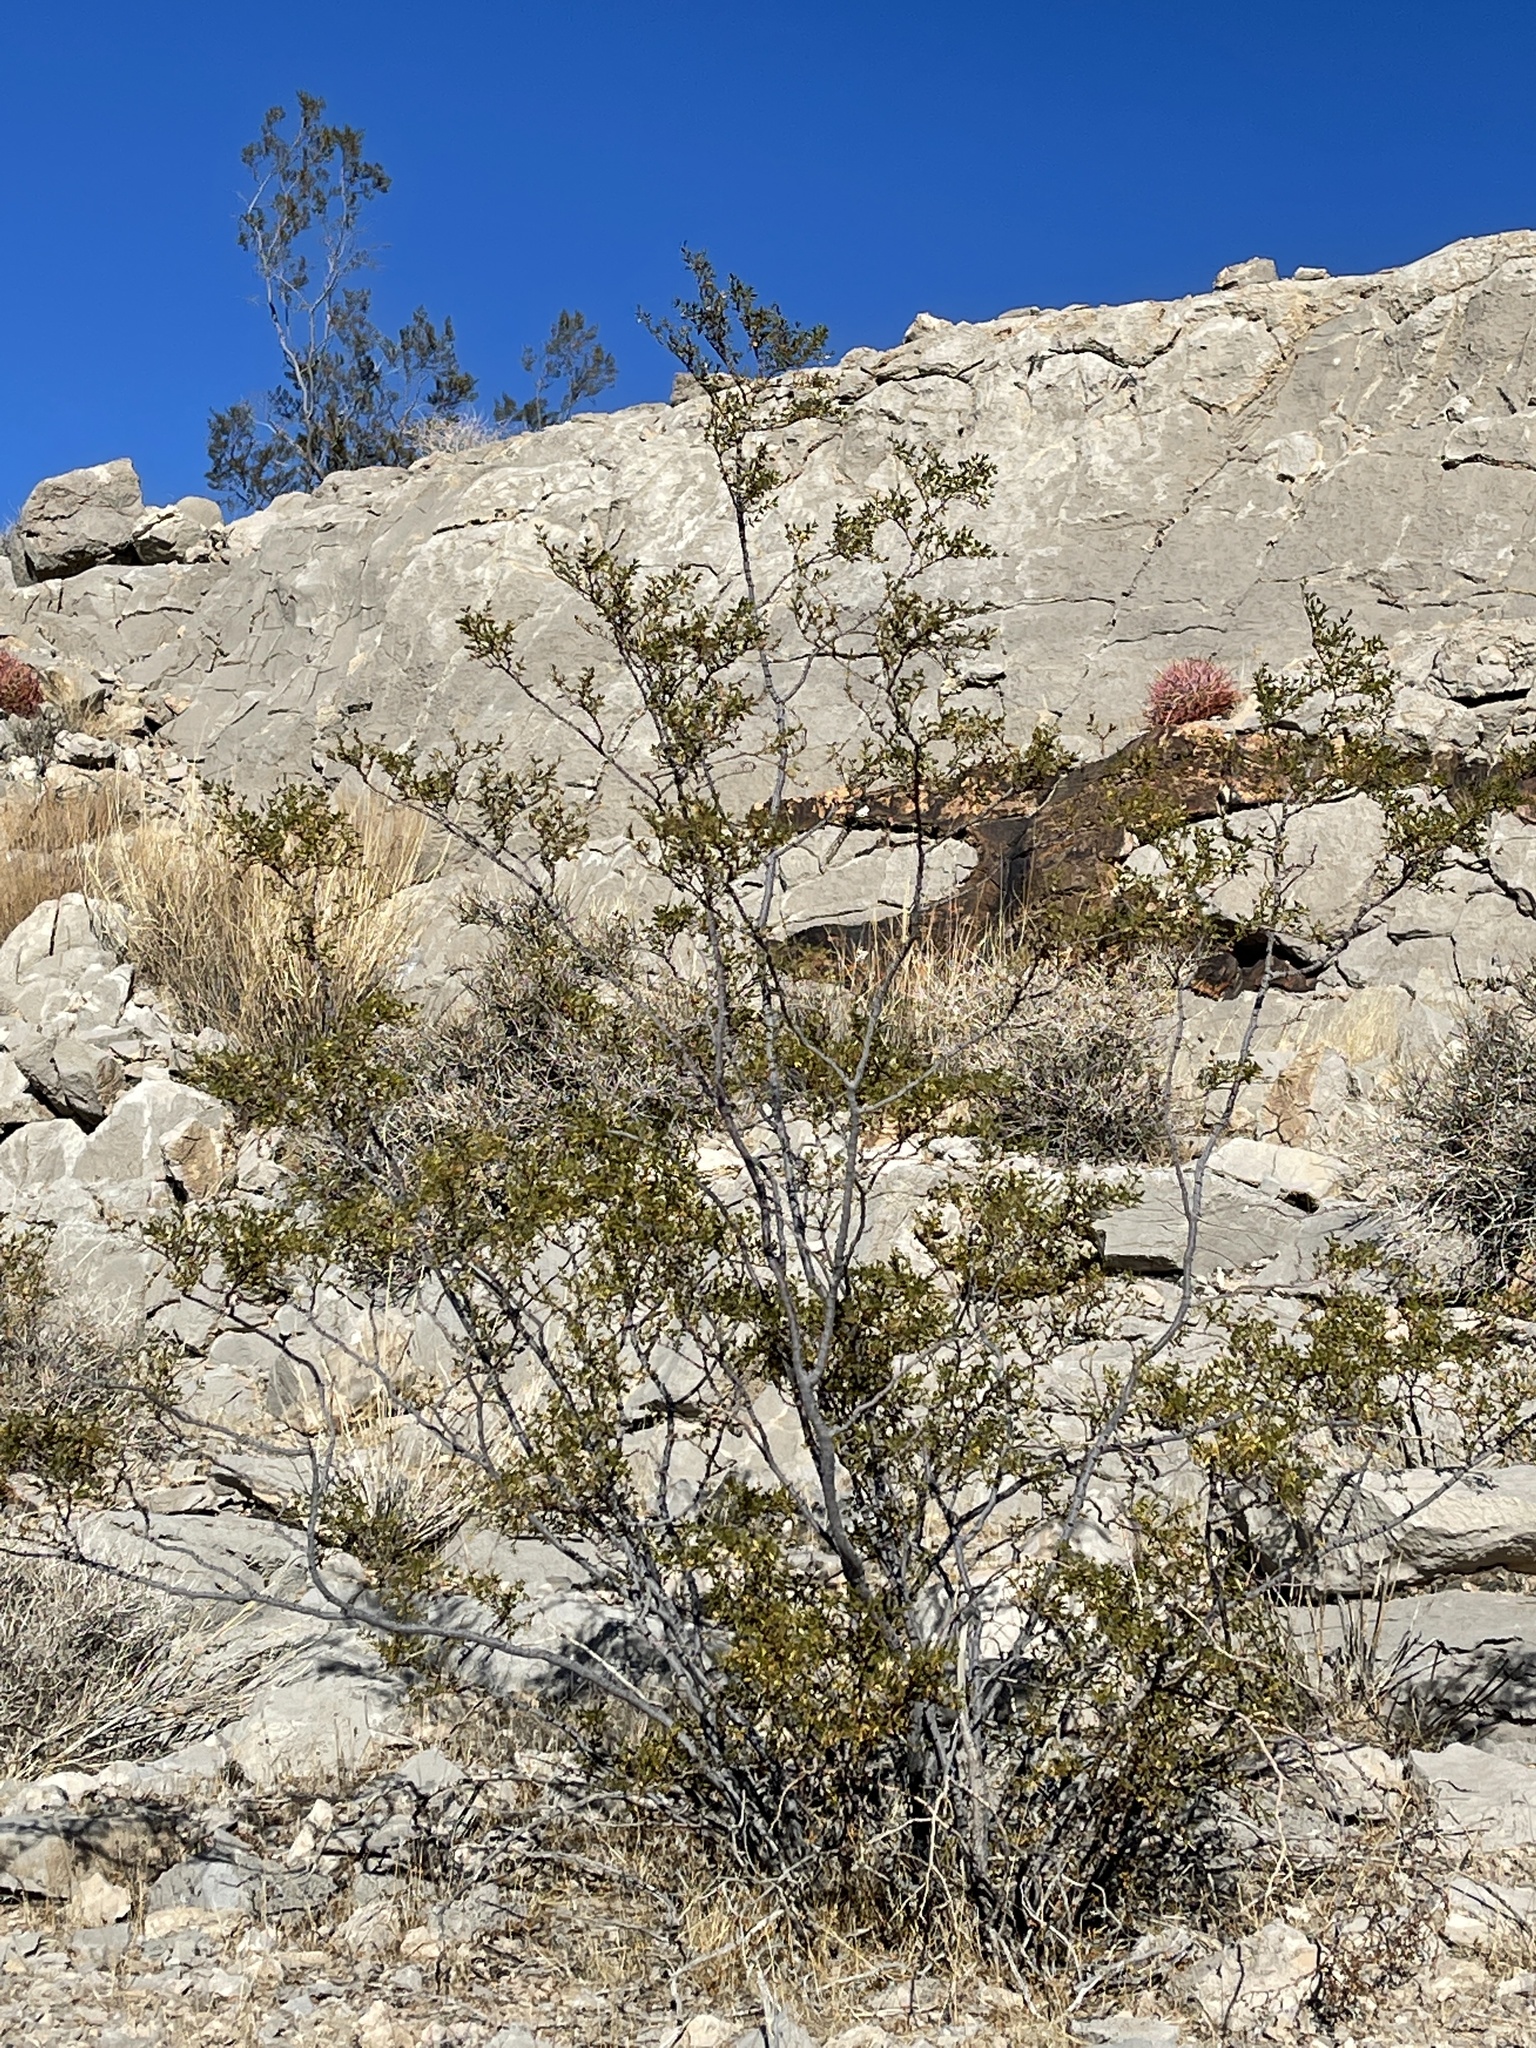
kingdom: Plantae
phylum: Tracheophyta
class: Magnoliopsida
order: Zygophyllales
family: Zygophyllaceae
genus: Larrea
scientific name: Larrea tridentata
